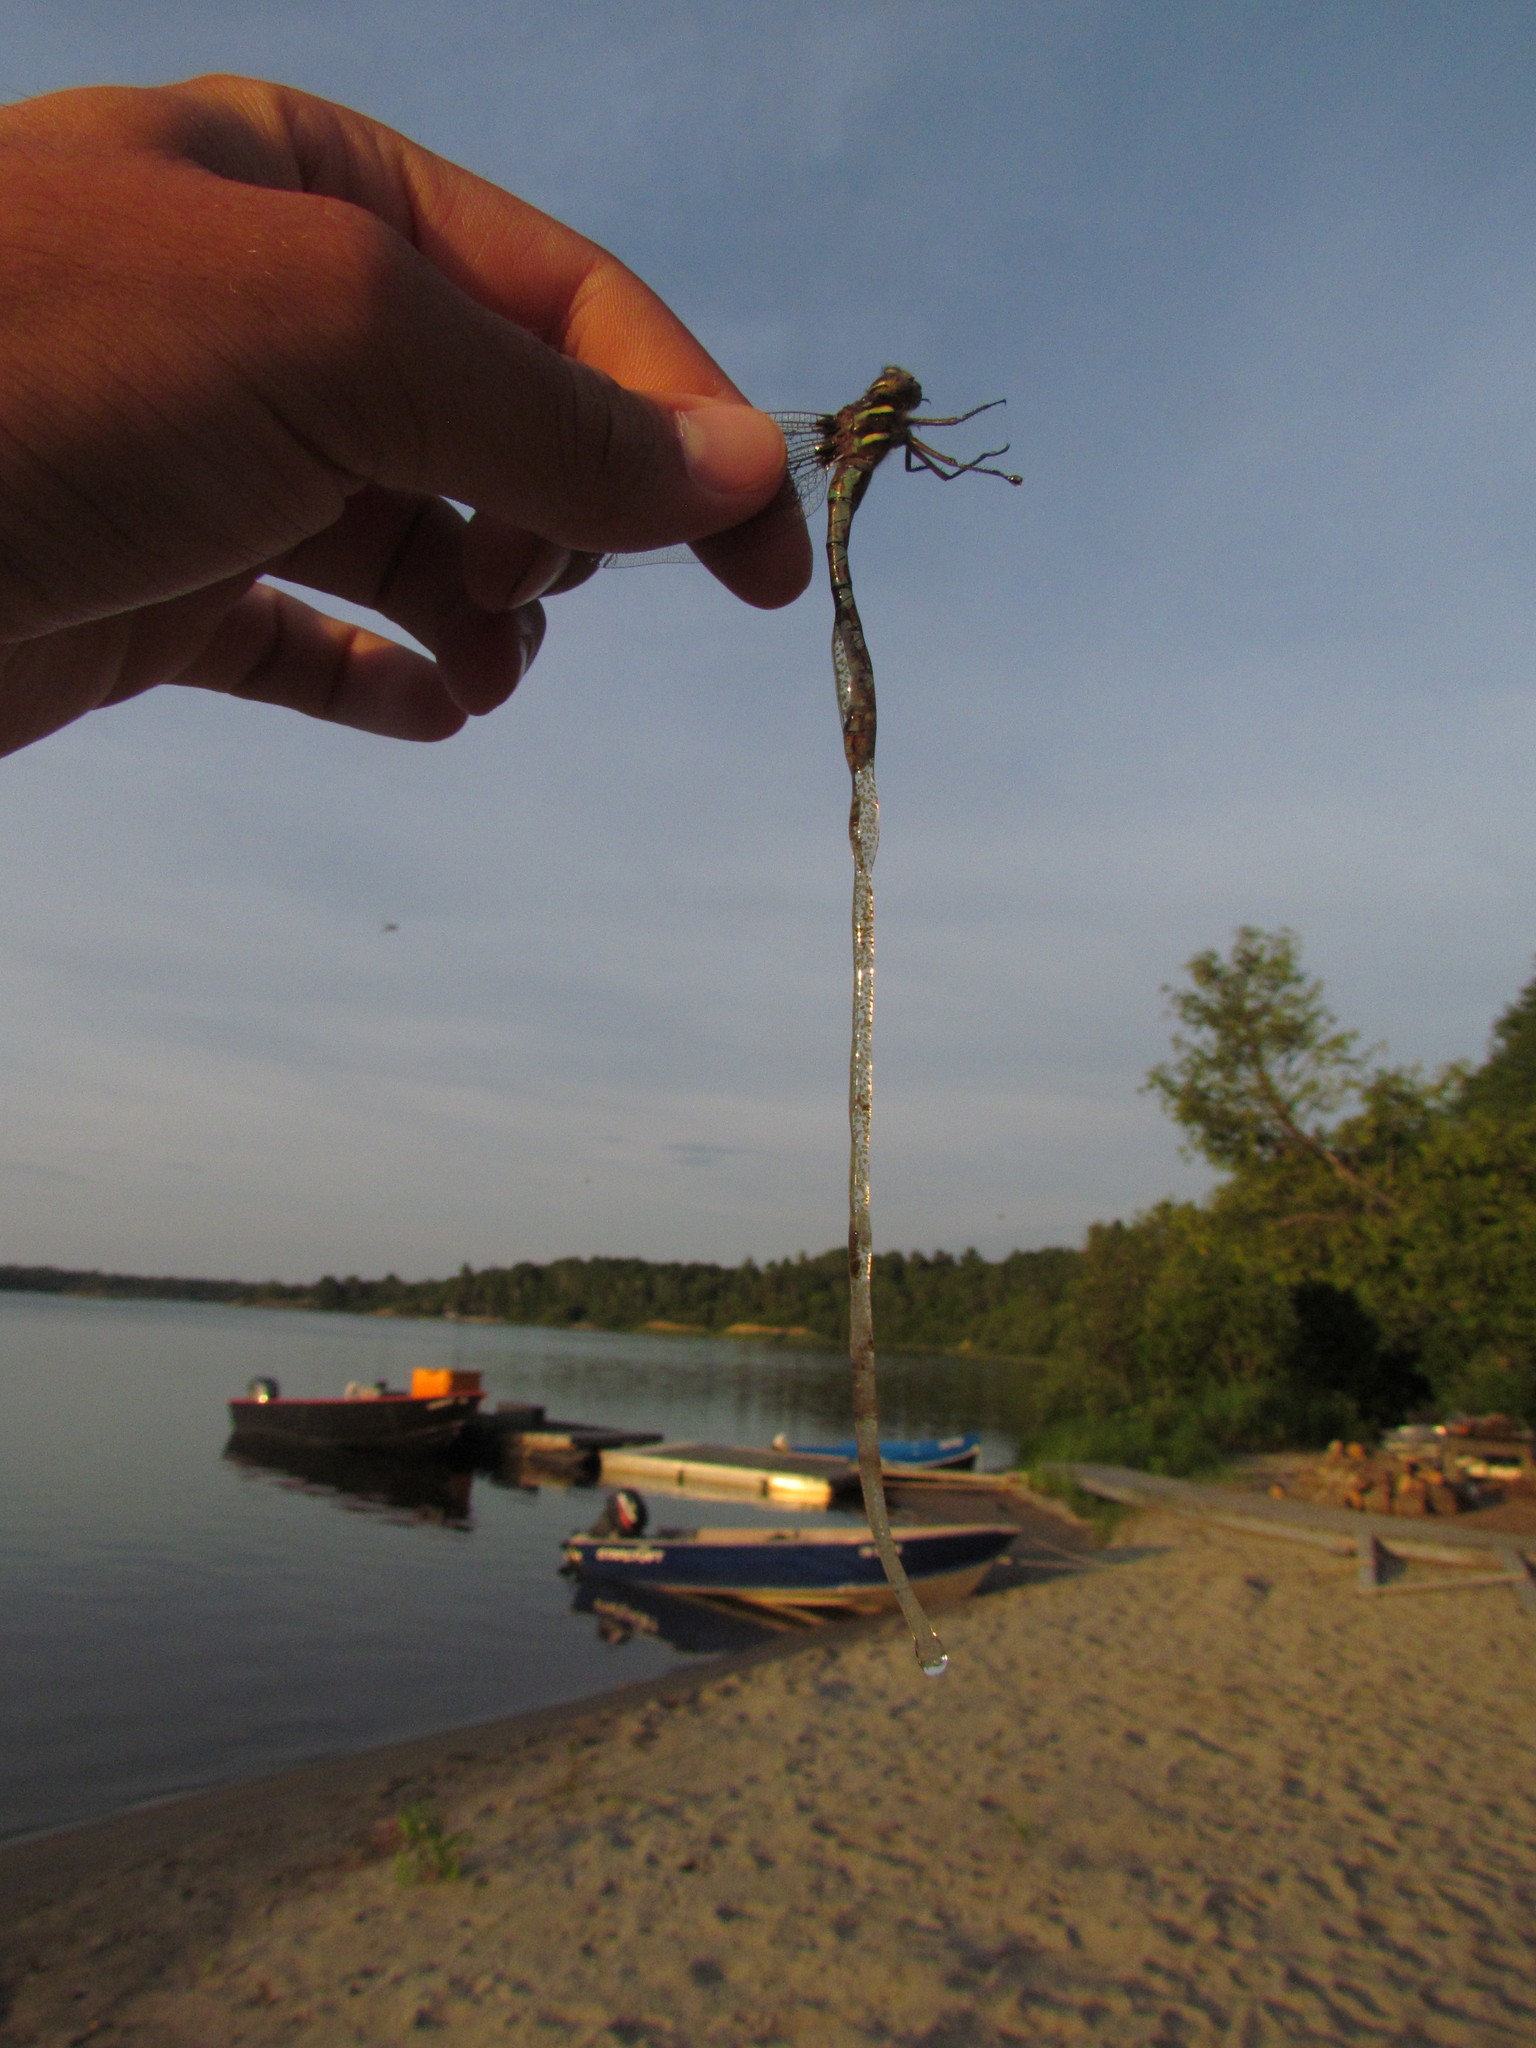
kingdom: Animalia
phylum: Arthropoda
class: Insecta
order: Odonata
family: Aeshnidae
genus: Basiaeschna
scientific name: Basiaeschna janata
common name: Springtime darner
